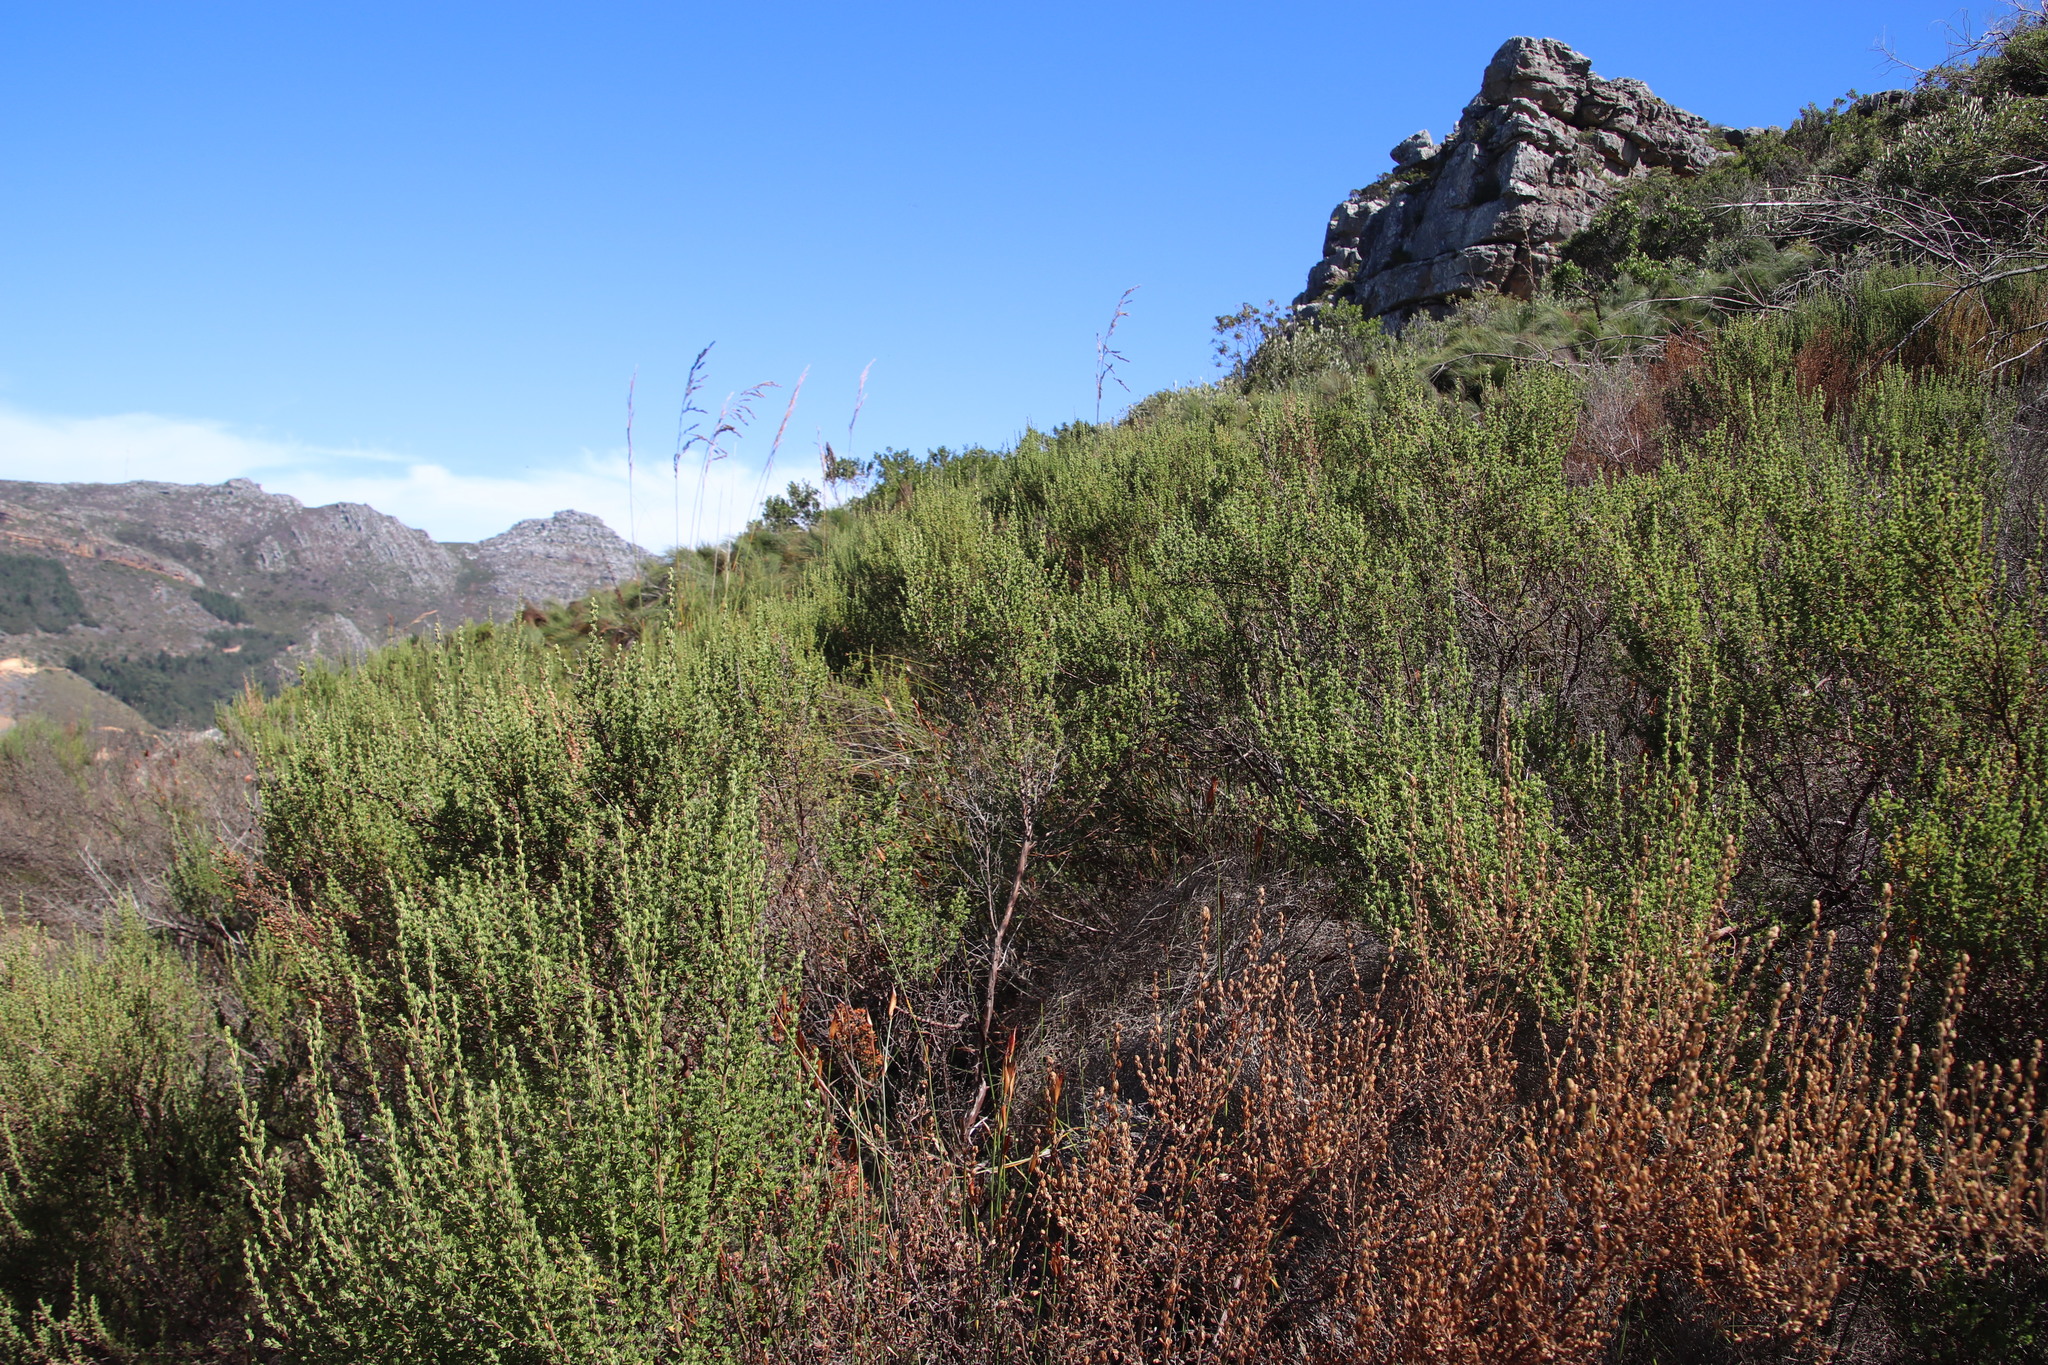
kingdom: Plantae
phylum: Tracheophyta
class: Magnoliopsida
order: Rosales
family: Rosaceae
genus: Cliffortia
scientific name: Cliffortia polygonifolia
